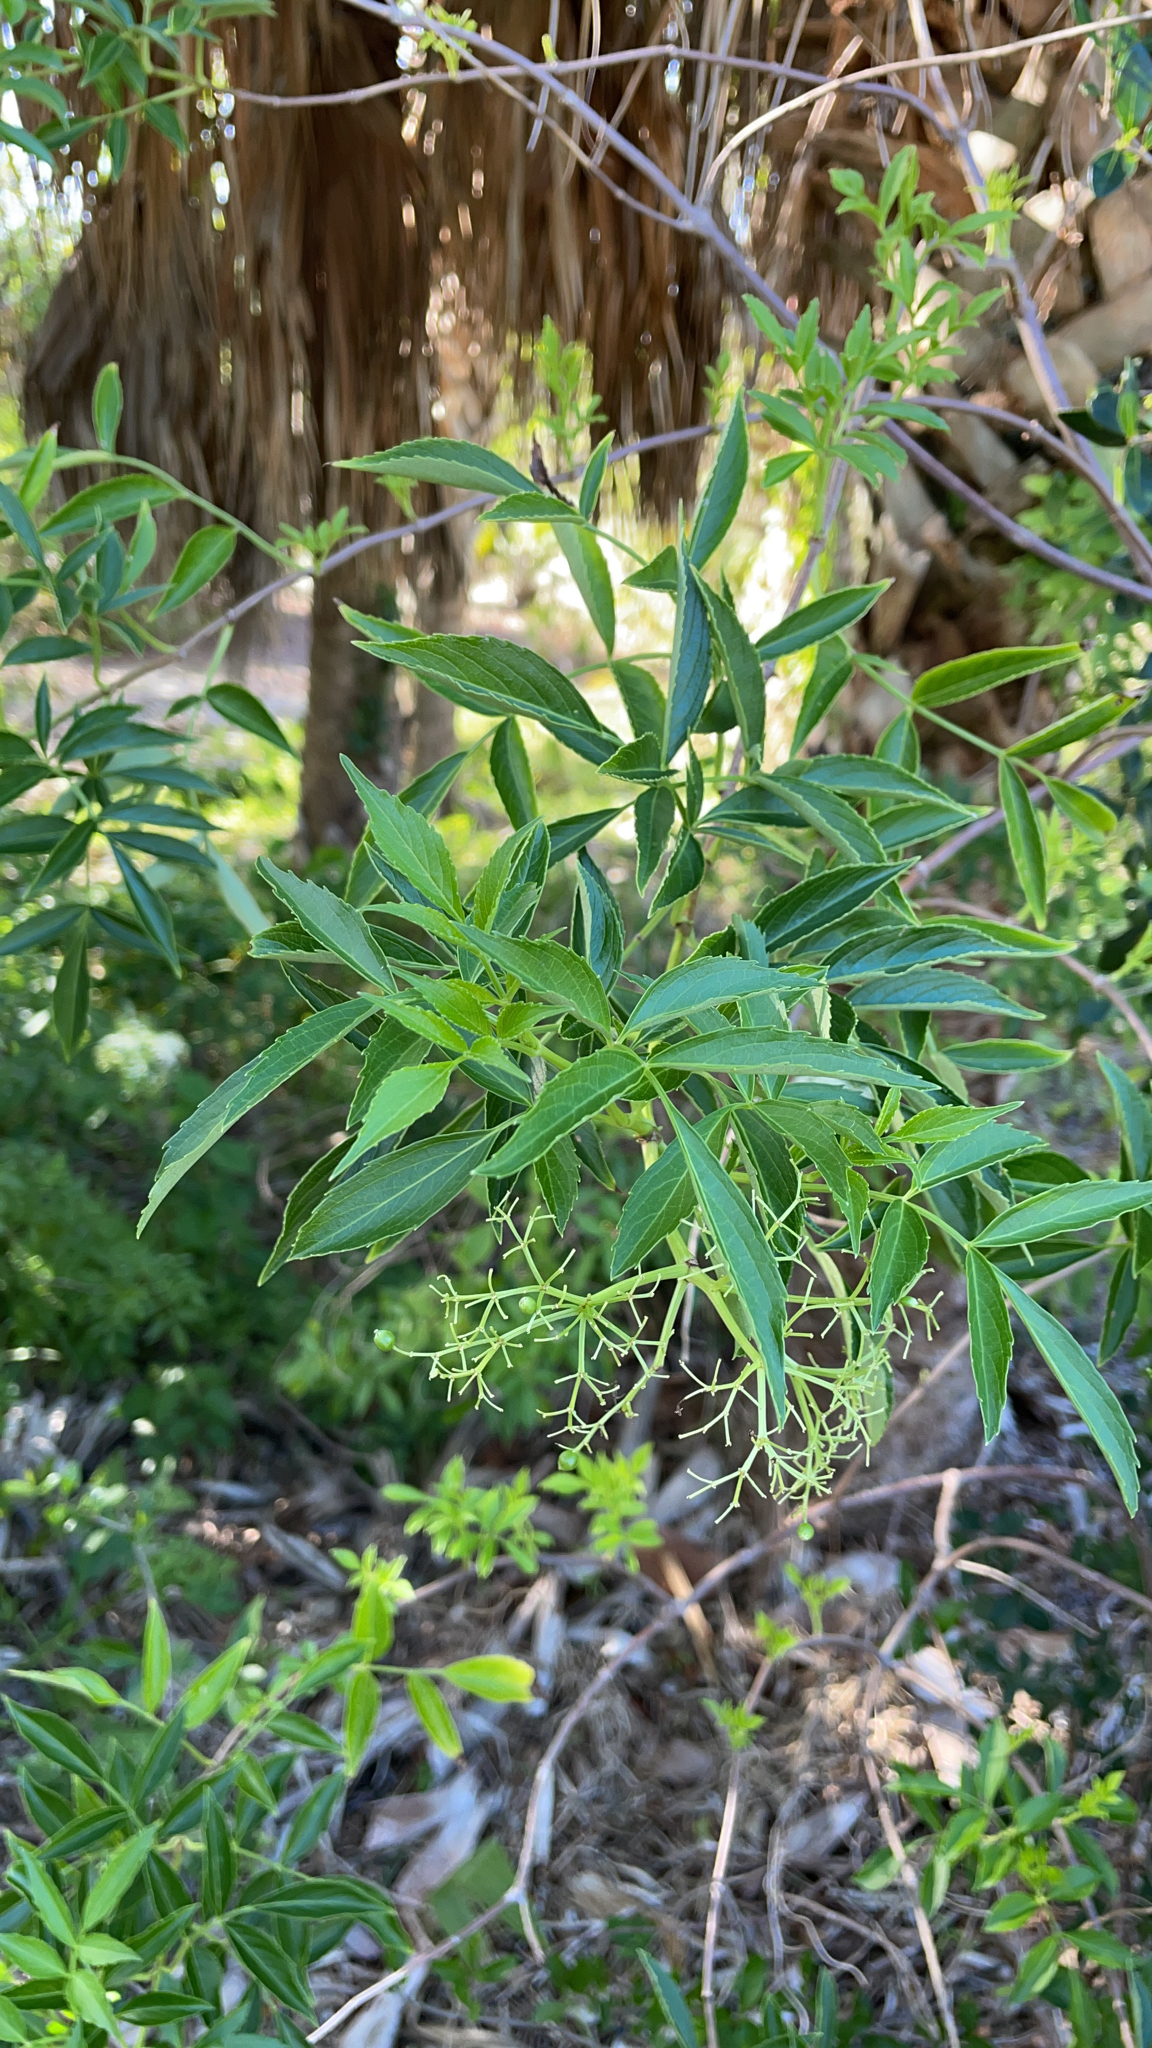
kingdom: Plantae
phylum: Tracheophyta
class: Magnoliopsida
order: Dipsacales
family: Viburnaceae
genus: Sambucus
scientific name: Sambucus canadensis
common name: American elder
